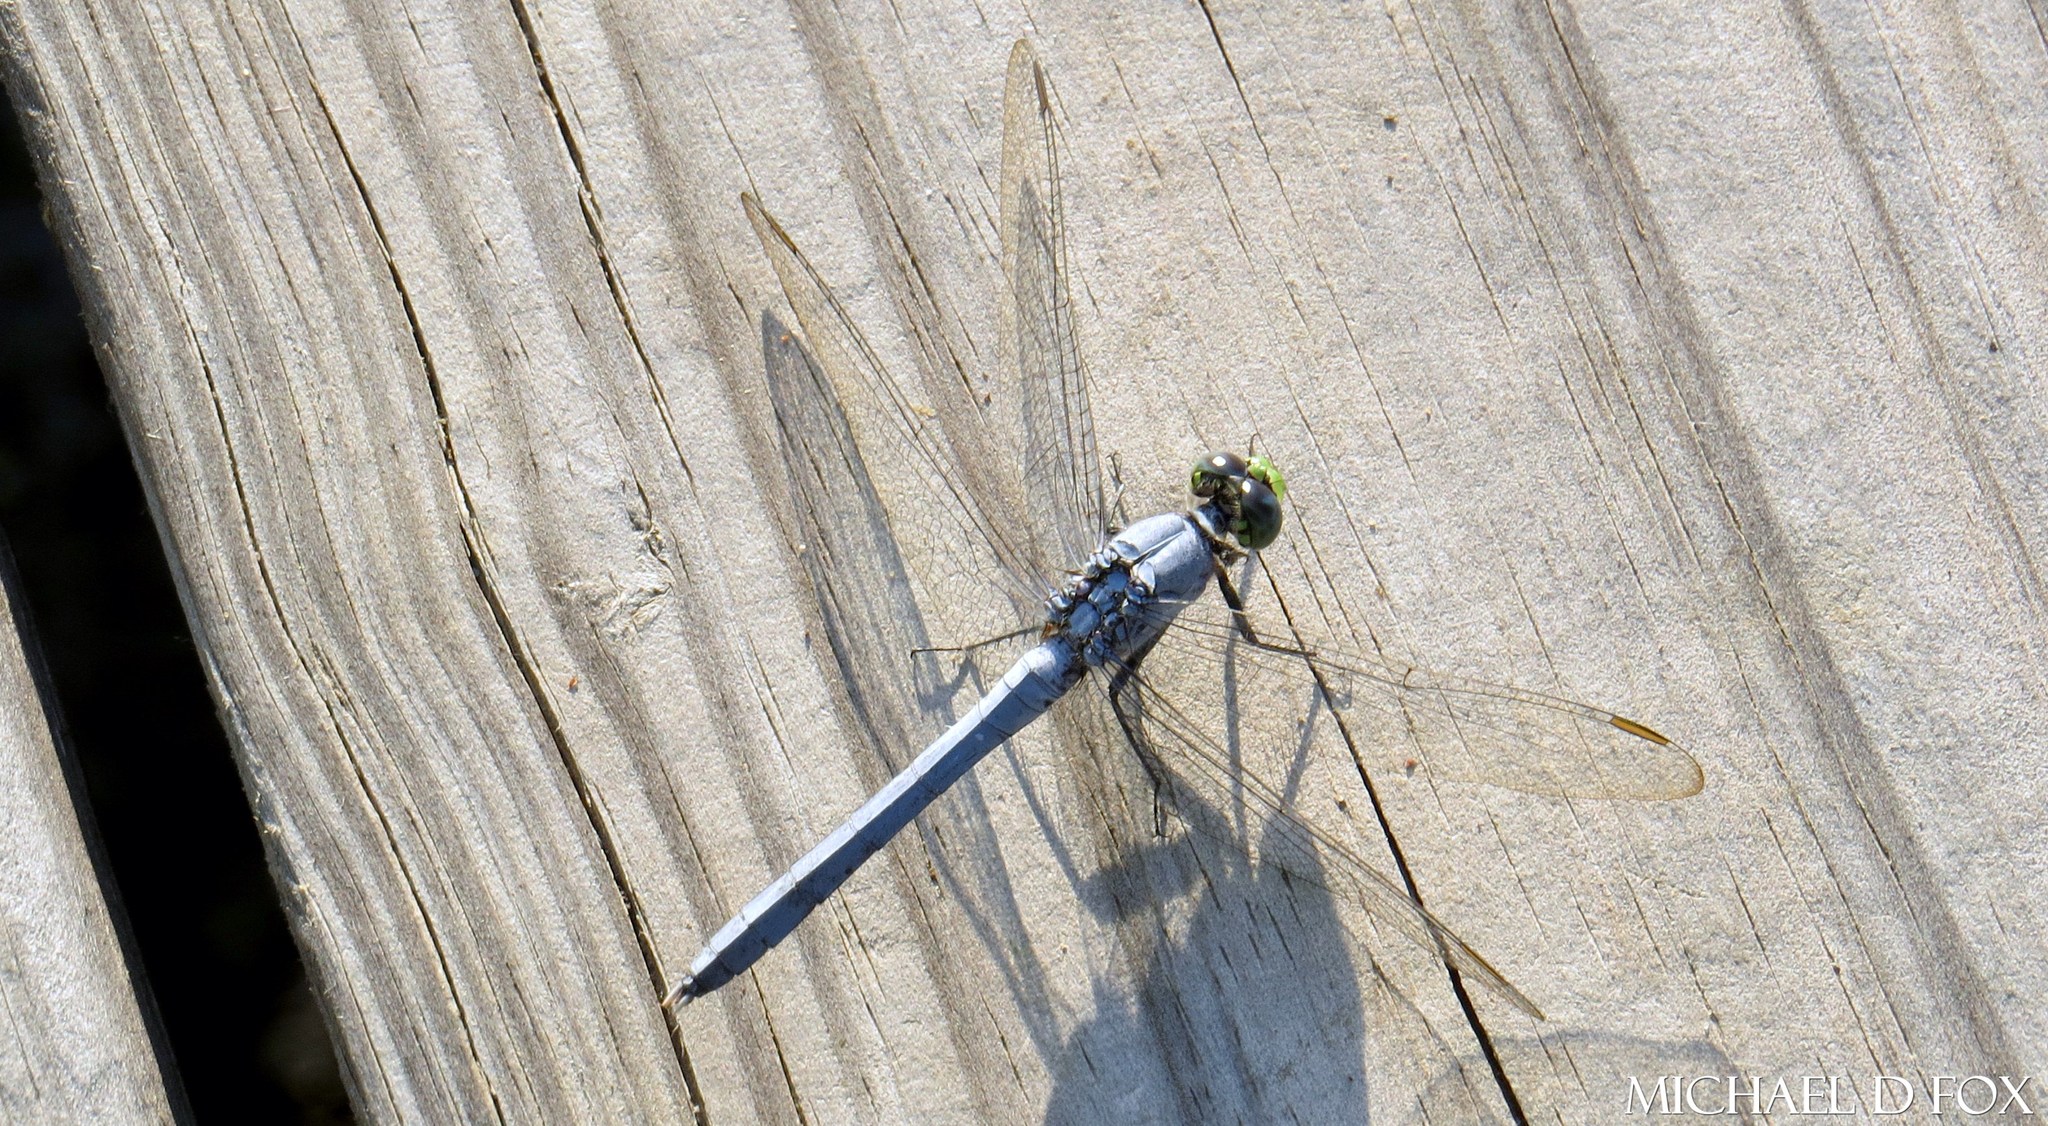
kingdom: Animalia
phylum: Arthropoda
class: Insecta
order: Odonata
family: Libellulidae
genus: Erythemis
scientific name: Erythemis simplicicollis
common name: Eastern pondhawk
